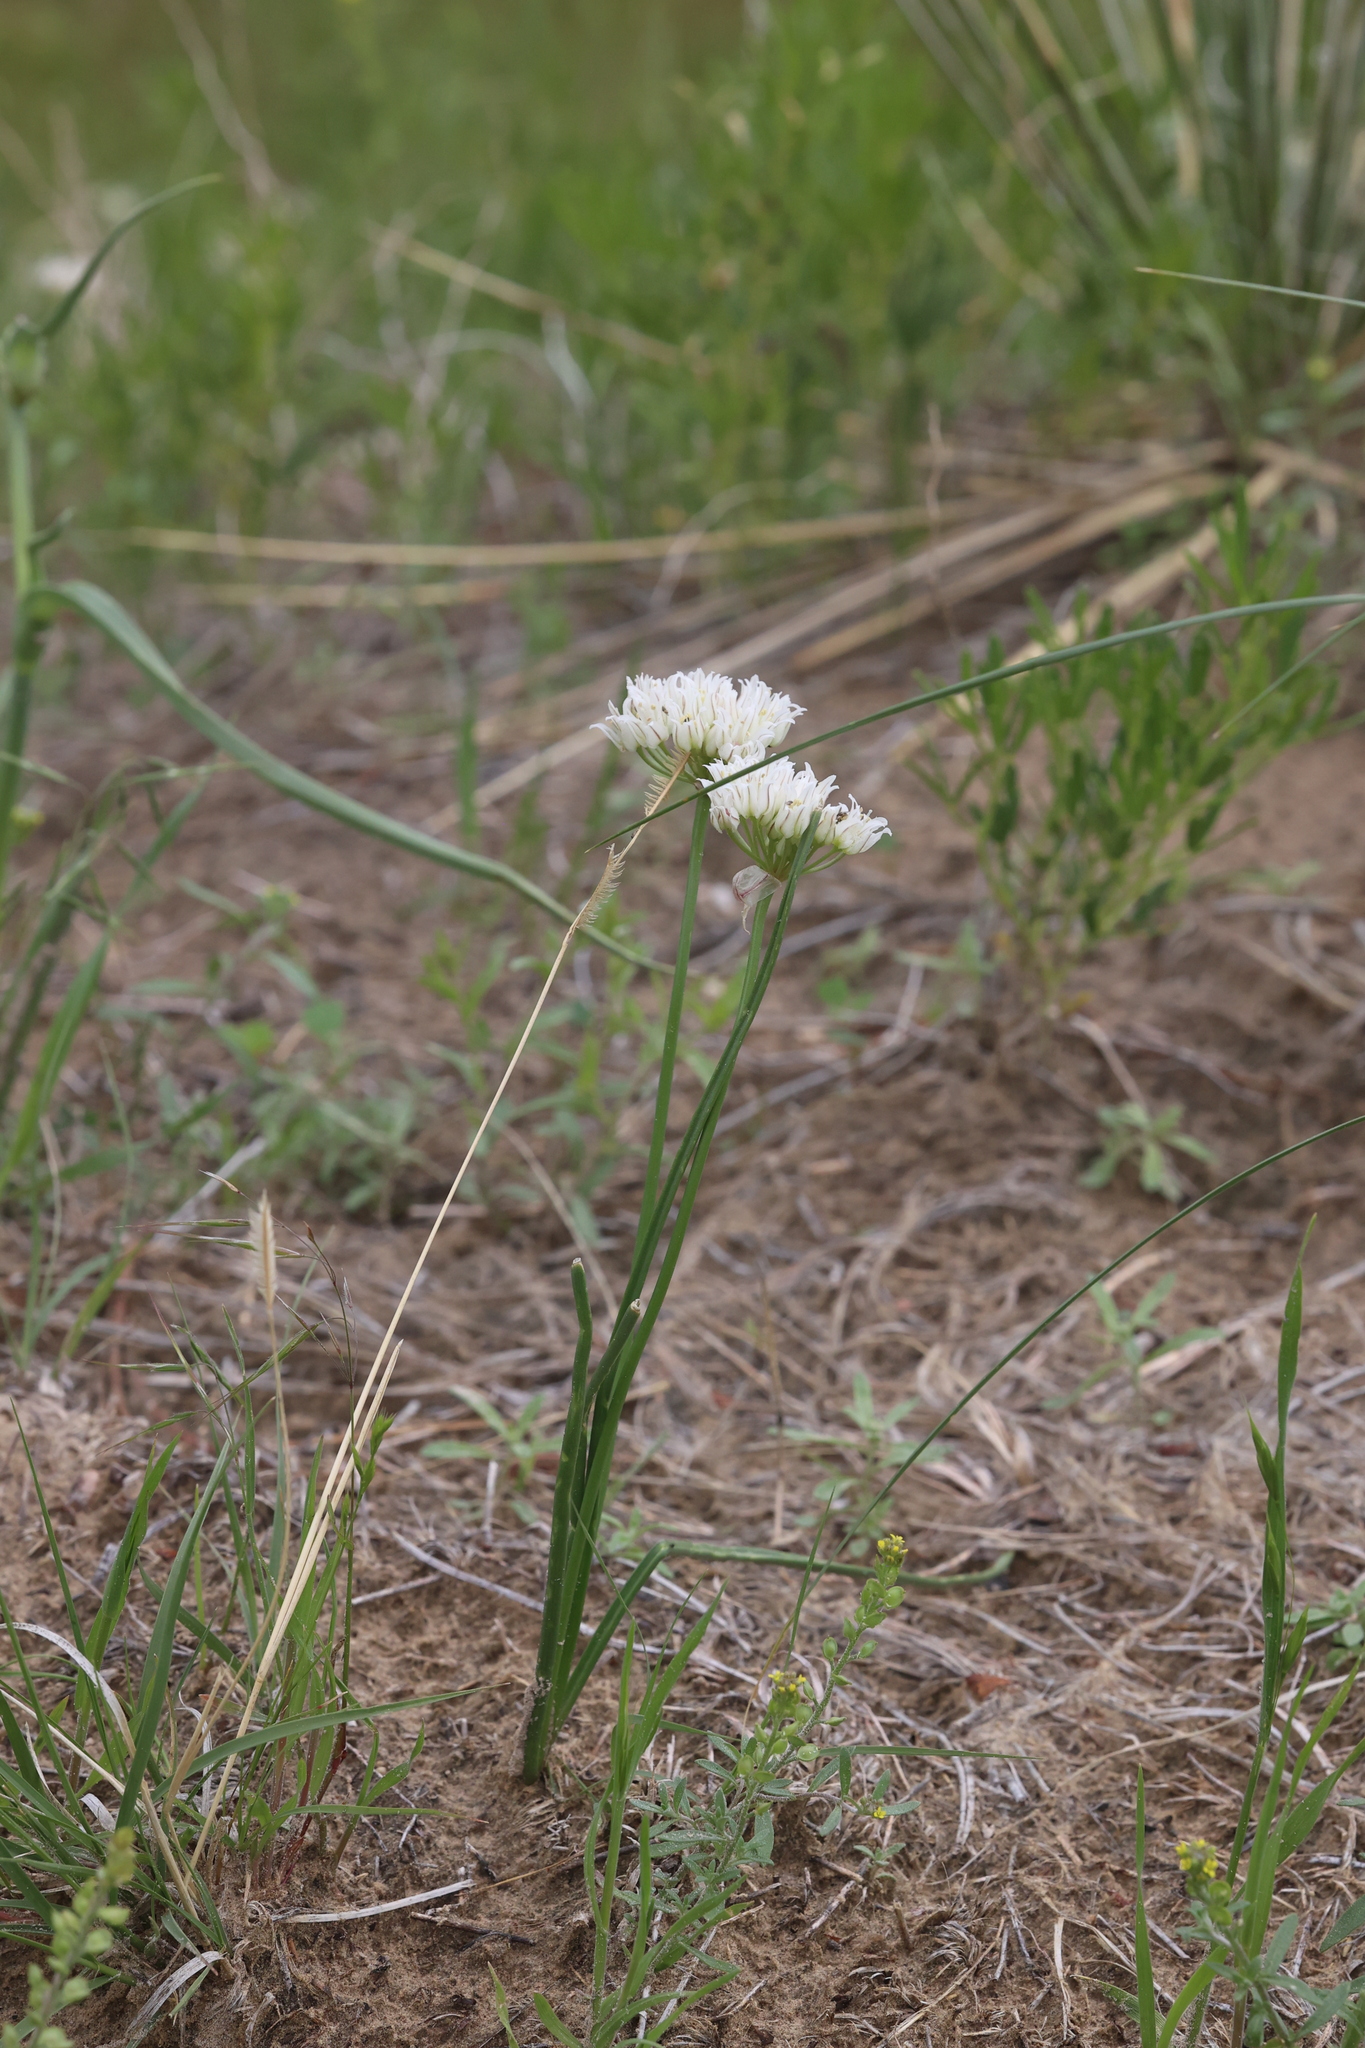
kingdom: Plantae
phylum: Tracheophyta
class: Liliopsida
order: Asparagales
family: Amaryllidaceae
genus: Allium
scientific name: Allium textile
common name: Prairie onion
